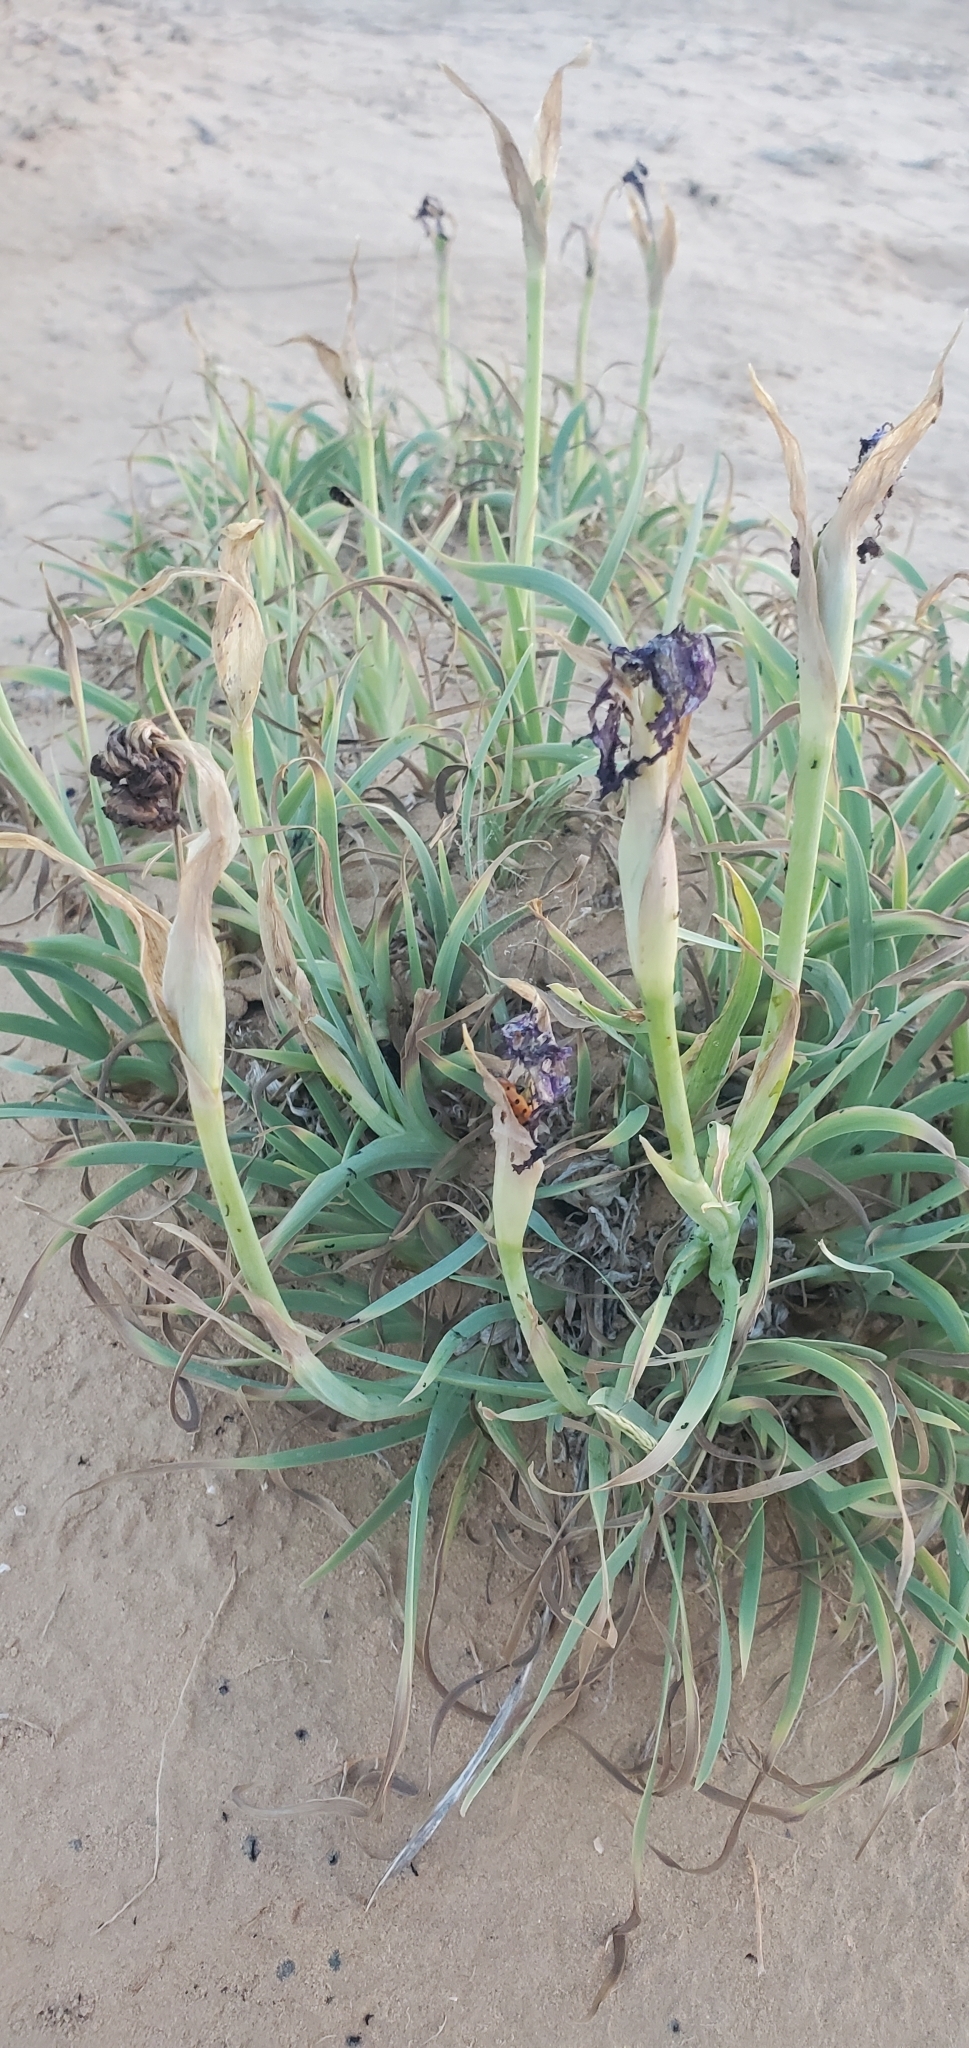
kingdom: Plantae
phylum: Tracheophyta
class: Liliopsida
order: Asparagales
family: Iridaceae
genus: Iris
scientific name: Iris mariae
